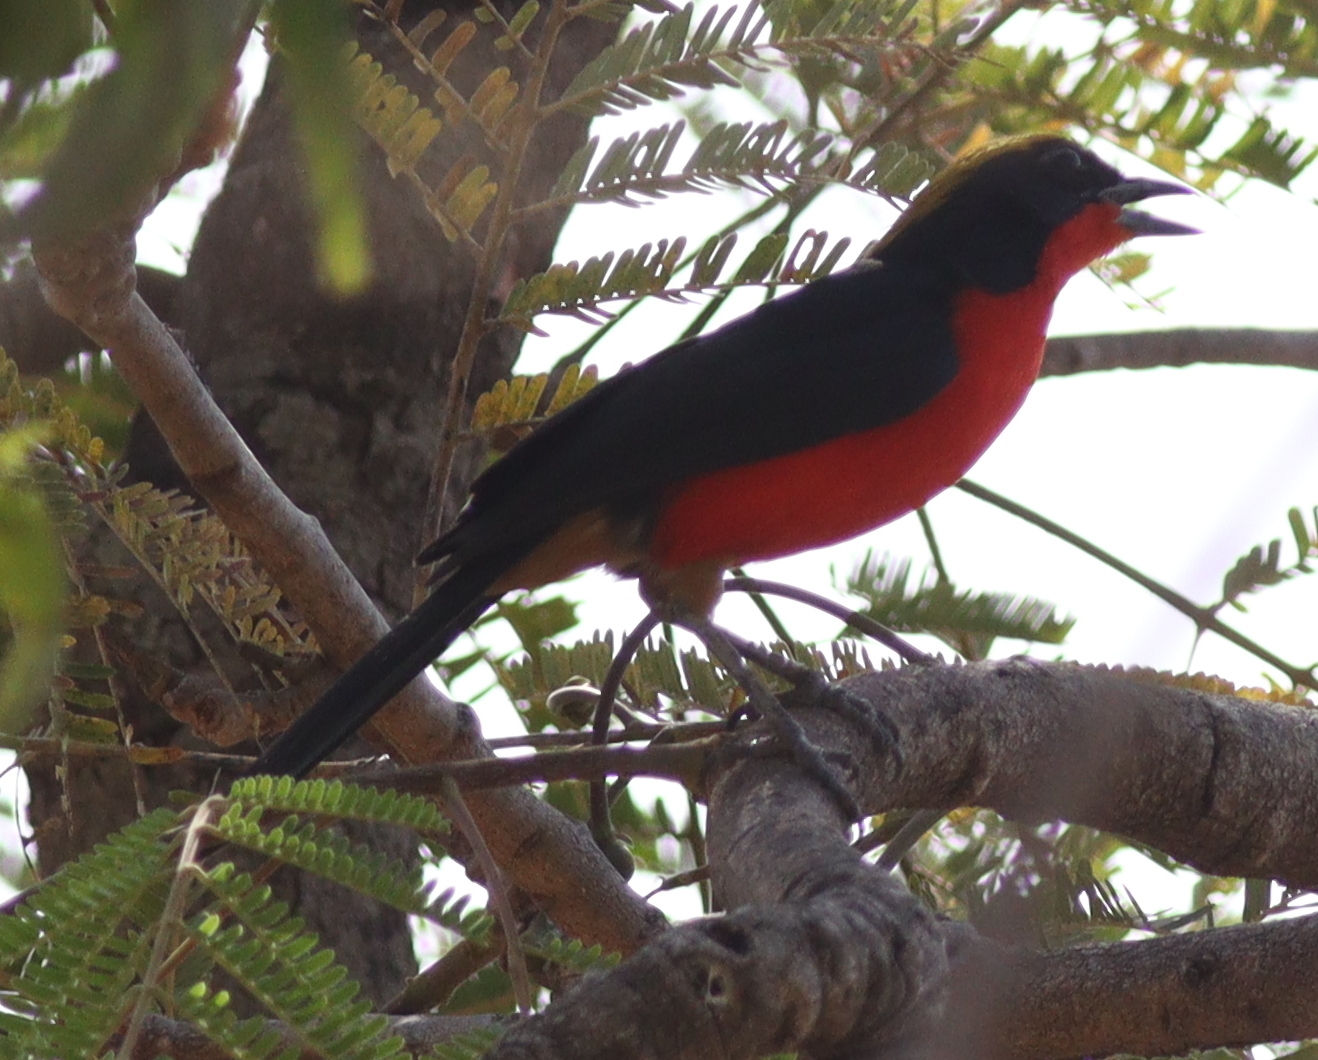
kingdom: Animalia
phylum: Chordata
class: Aves
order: Passeriformes
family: Malaconotidae
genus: Laniarius
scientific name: Laniarius barbarus
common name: Yellow-crowned gonolek
